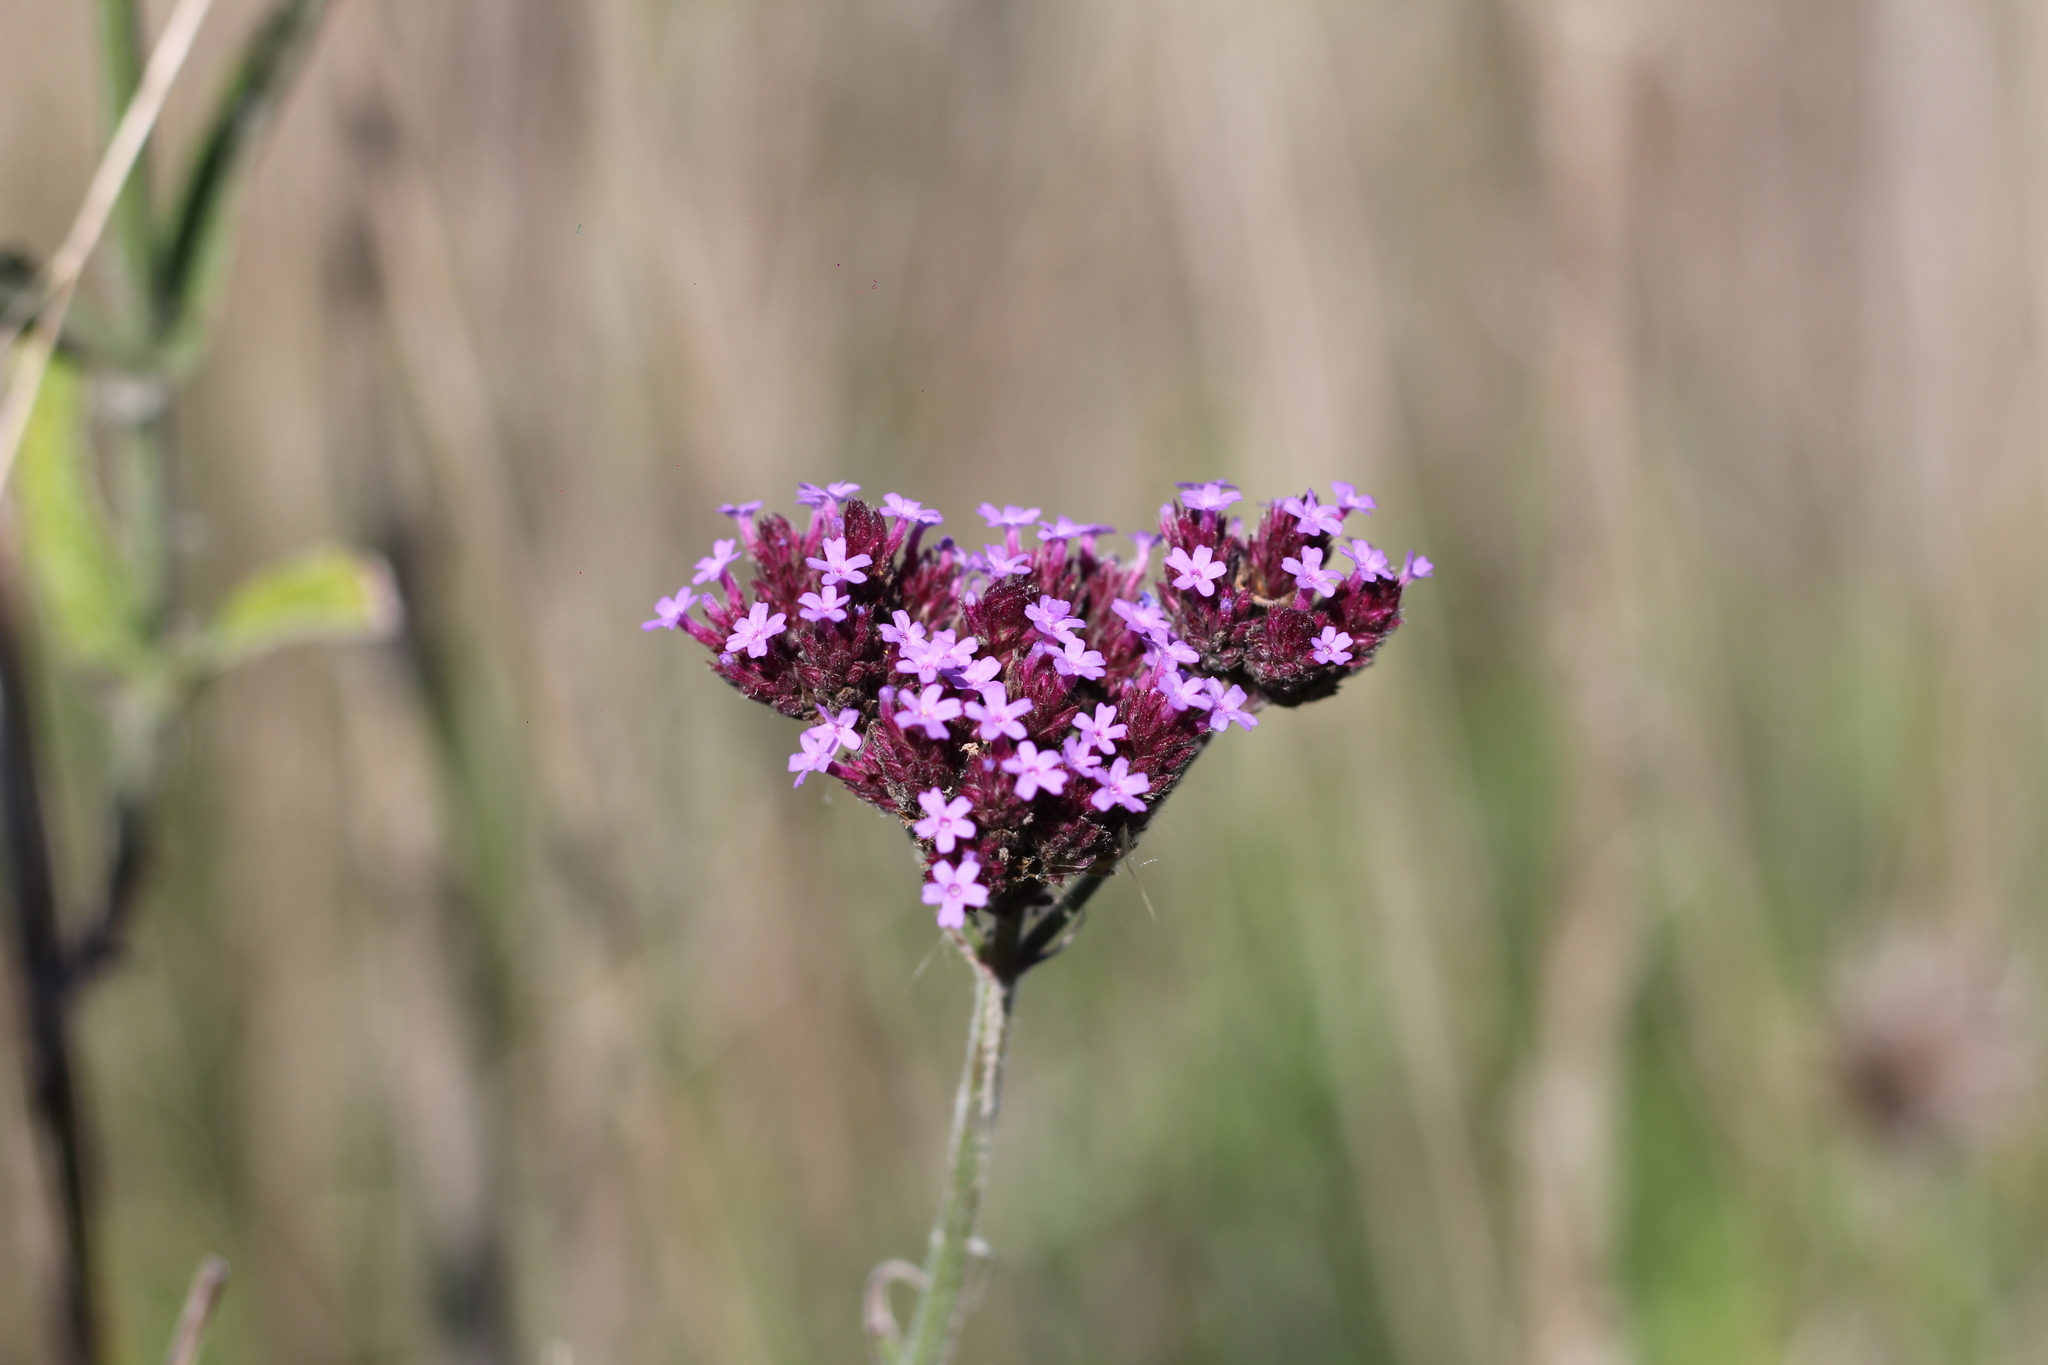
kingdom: Plantae
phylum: Tracheophyta
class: Magnoliopsida
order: Lamiales
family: Verbenaceae
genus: Verbena
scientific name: Verbena bonariensis
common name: Purpletop vervain
